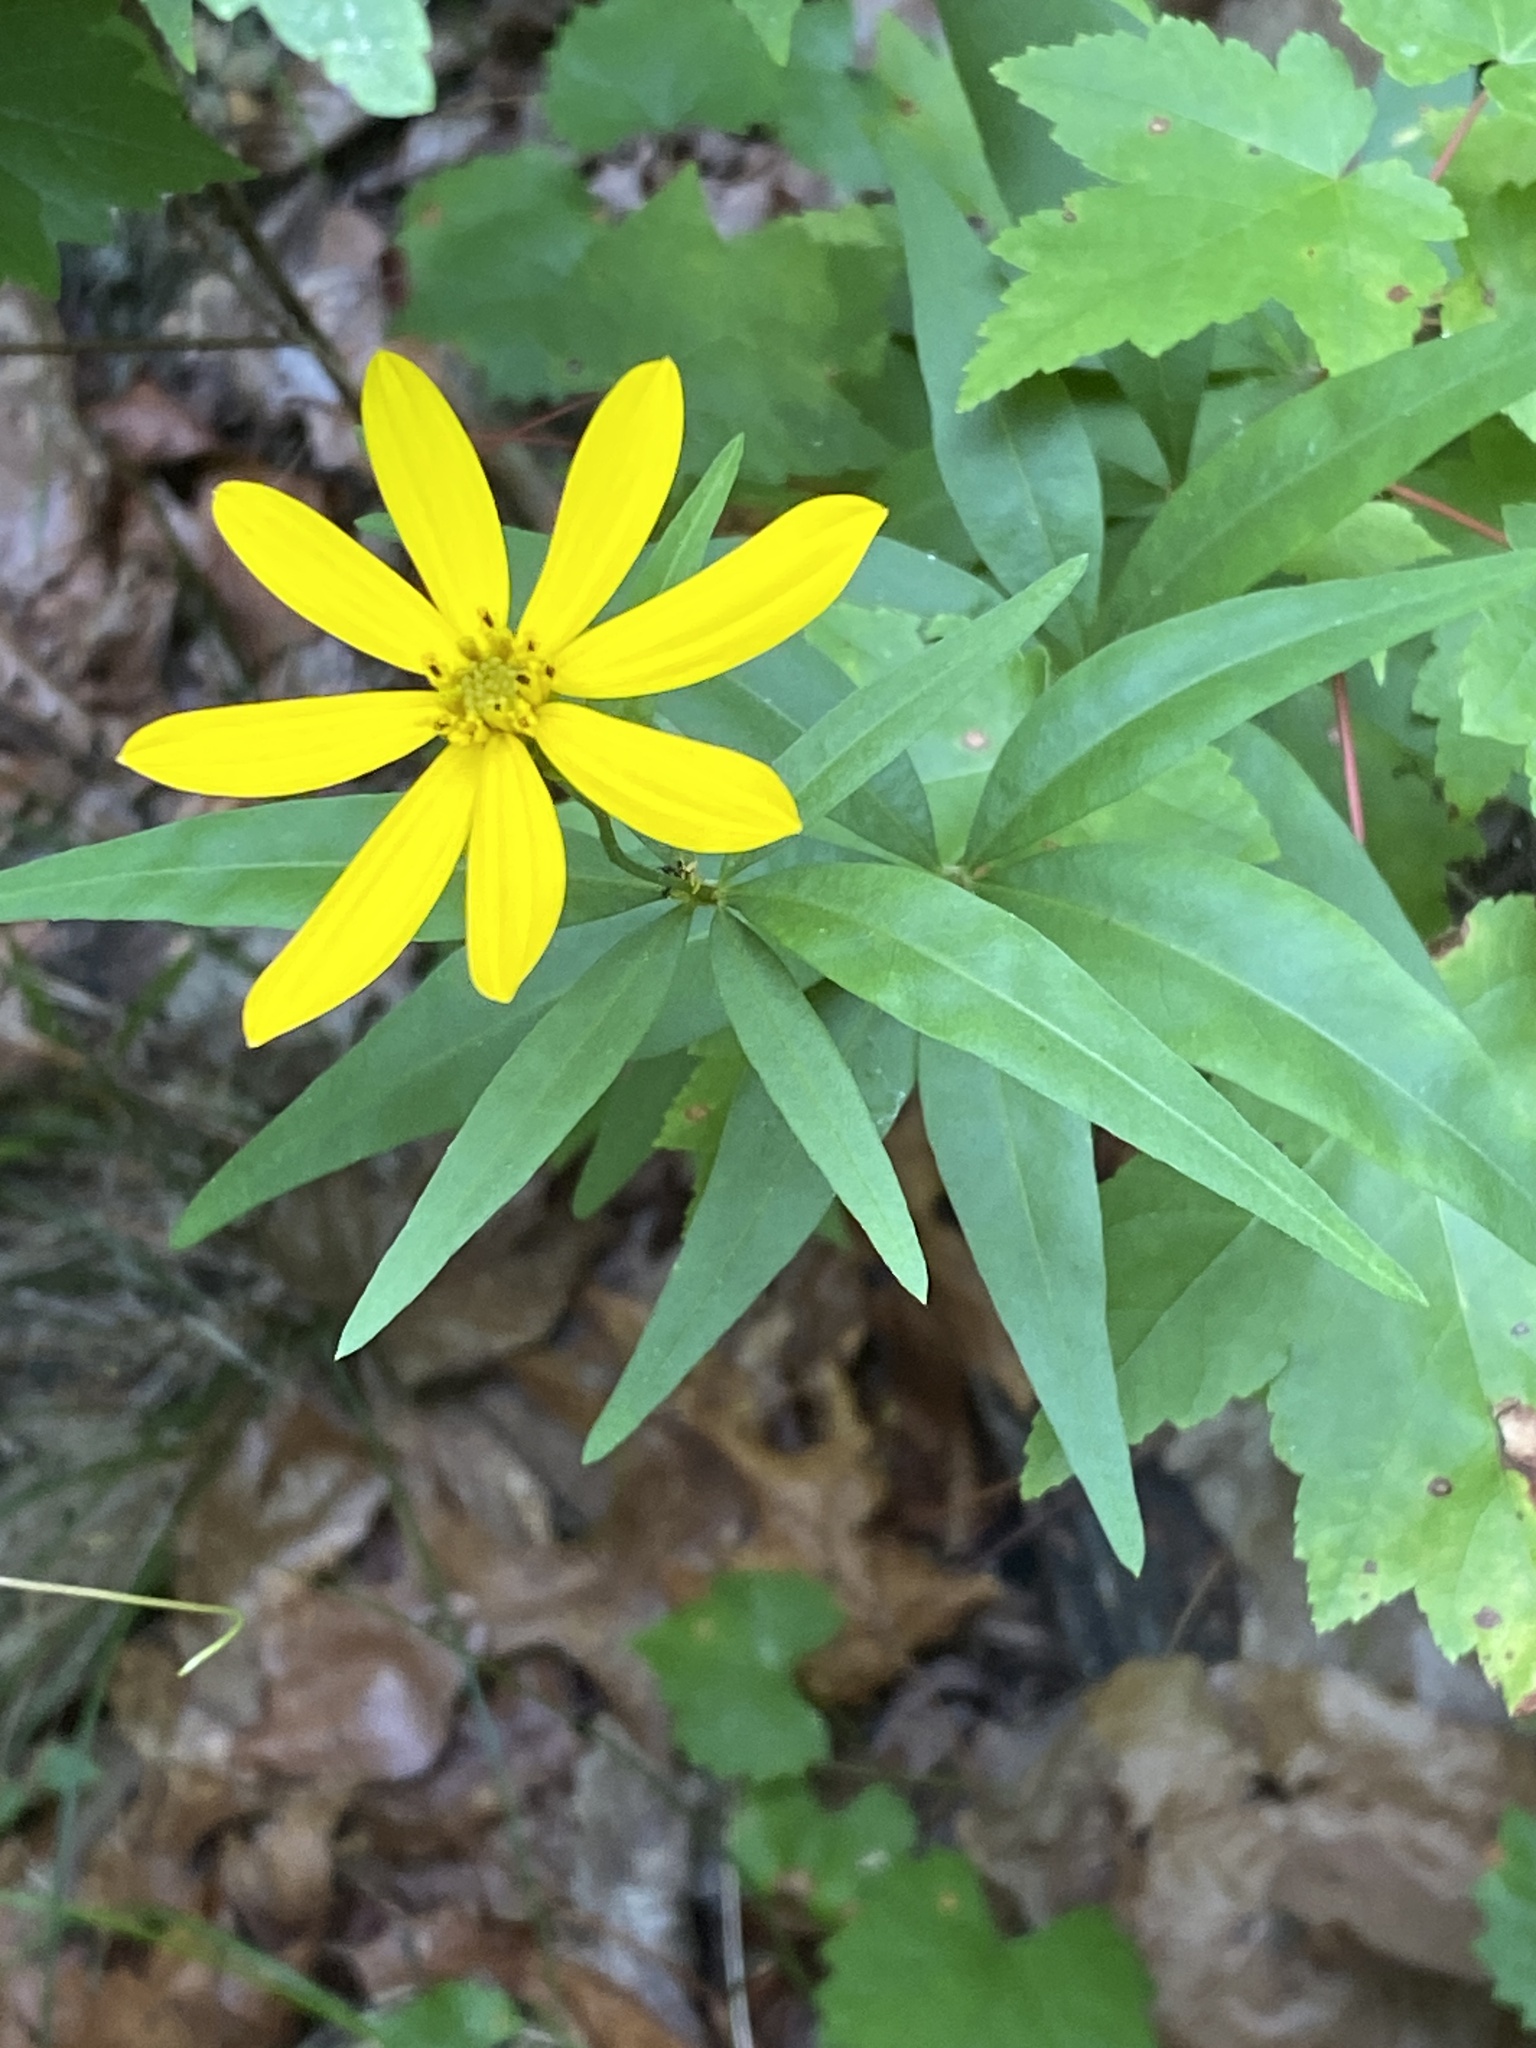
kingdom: Plantae
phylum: Tracheophyta
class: Magnoliopsida
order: Asterales
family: Asteraceae
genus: Coreopsis
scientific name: Coreopsis major
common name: Forest tickseed
